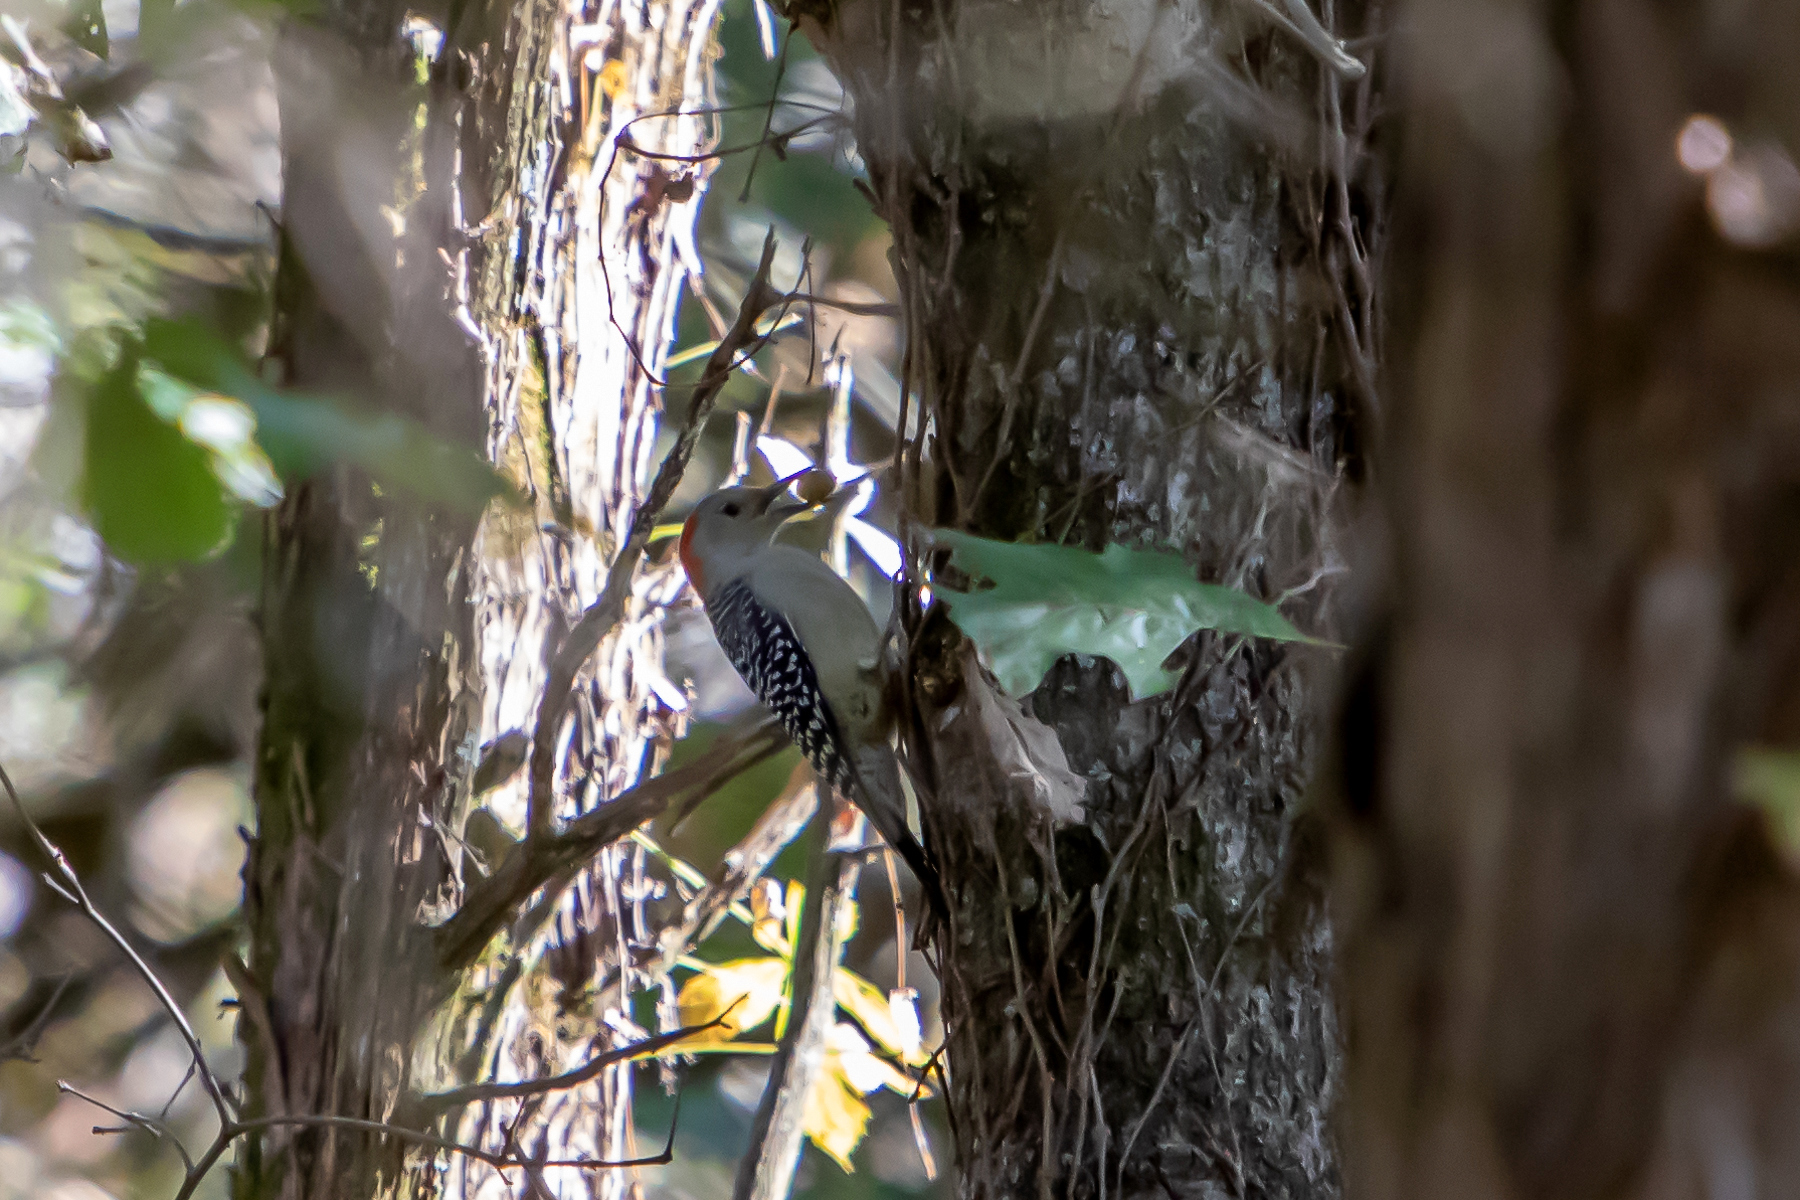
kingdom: Animalia
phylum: Chordata
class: Aves
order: Piciformes
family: Picidae
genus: Melanerpes
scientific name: Melanerpes carolinus
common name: Red-bellied woodpecker
